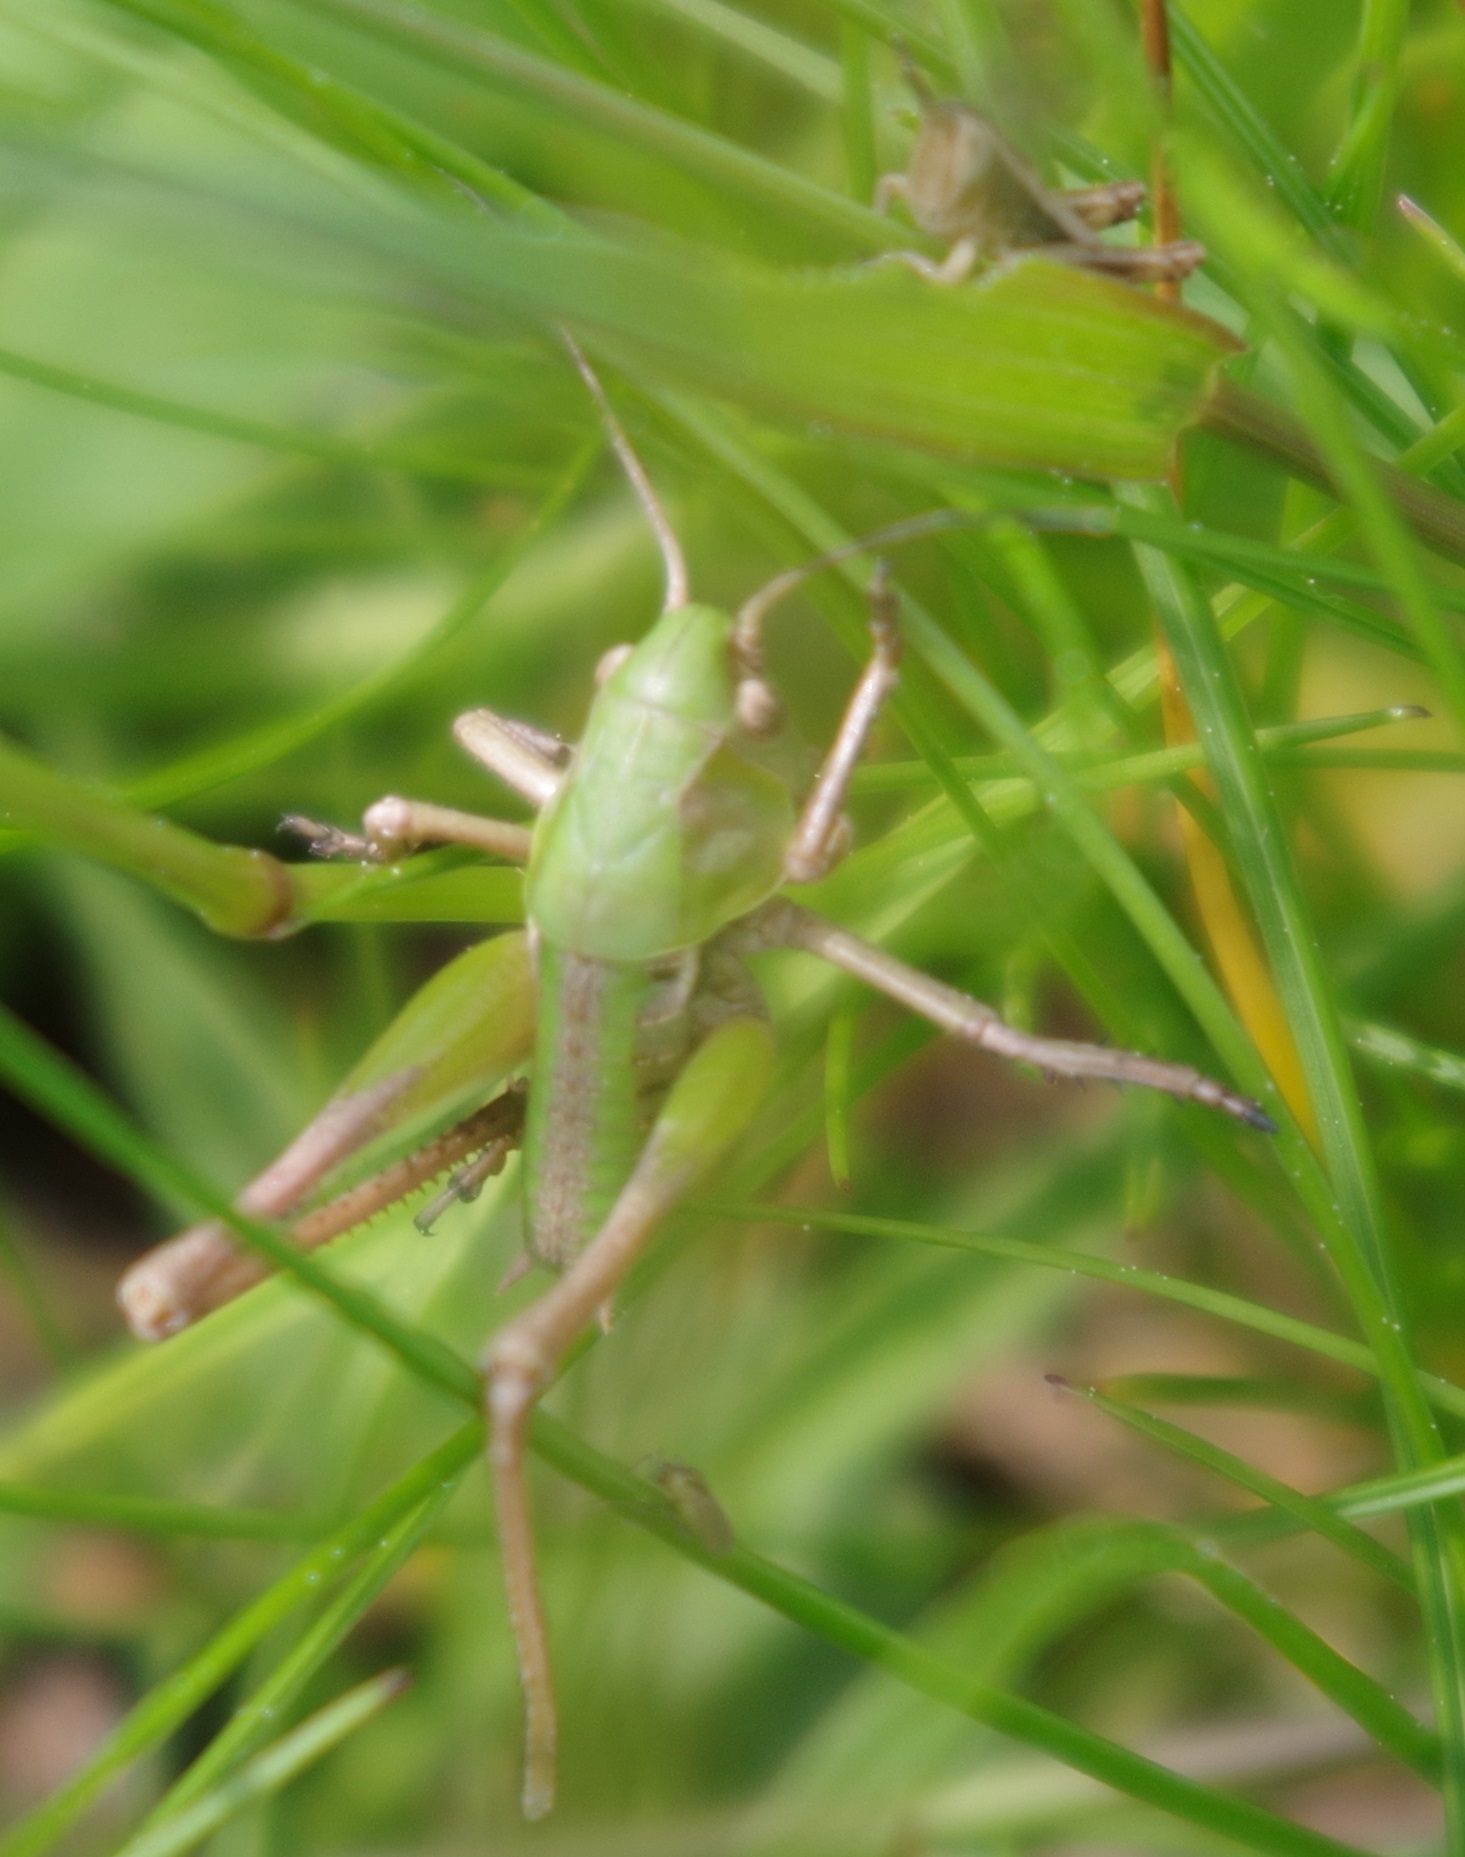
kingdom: Animalia
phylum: Arthropoda
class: Insecta
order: Orthoptera
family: Tettigoniidae
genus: Decticus
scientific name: Decticus verrucivorus
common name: Wart-biter
